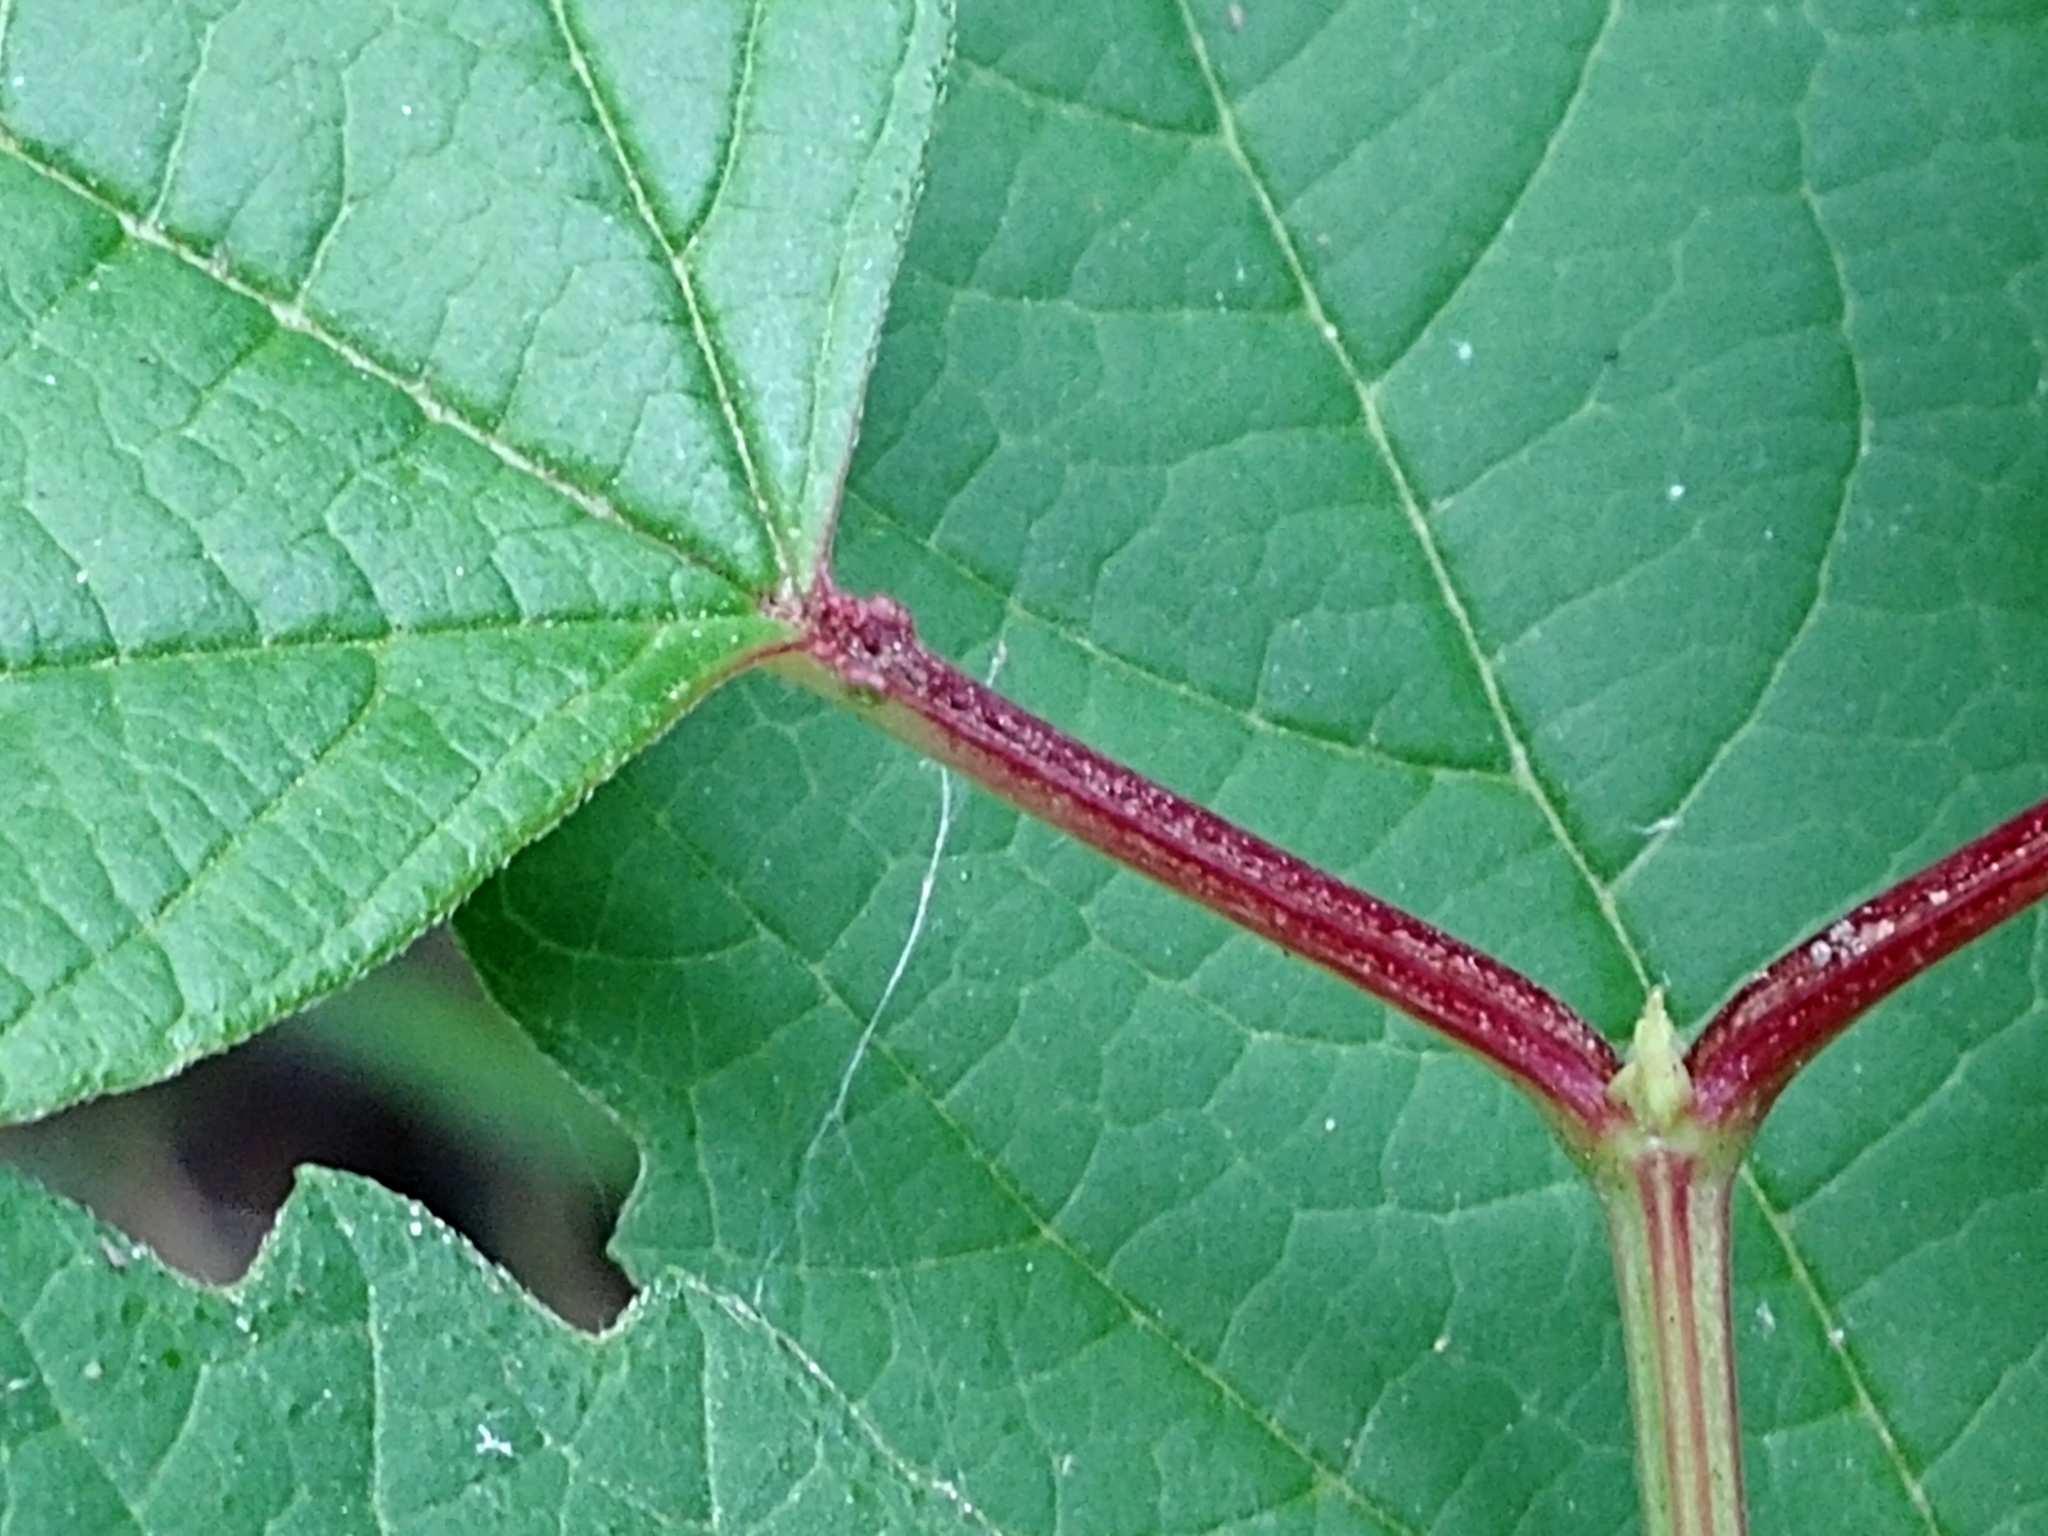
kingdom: Plantae
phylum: Tracheophyta
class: Magnoliopsida
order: Dipsacales
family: Viburnaceae
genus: Viburnum
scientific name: Viburnum opulus
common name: Guelder-rose
